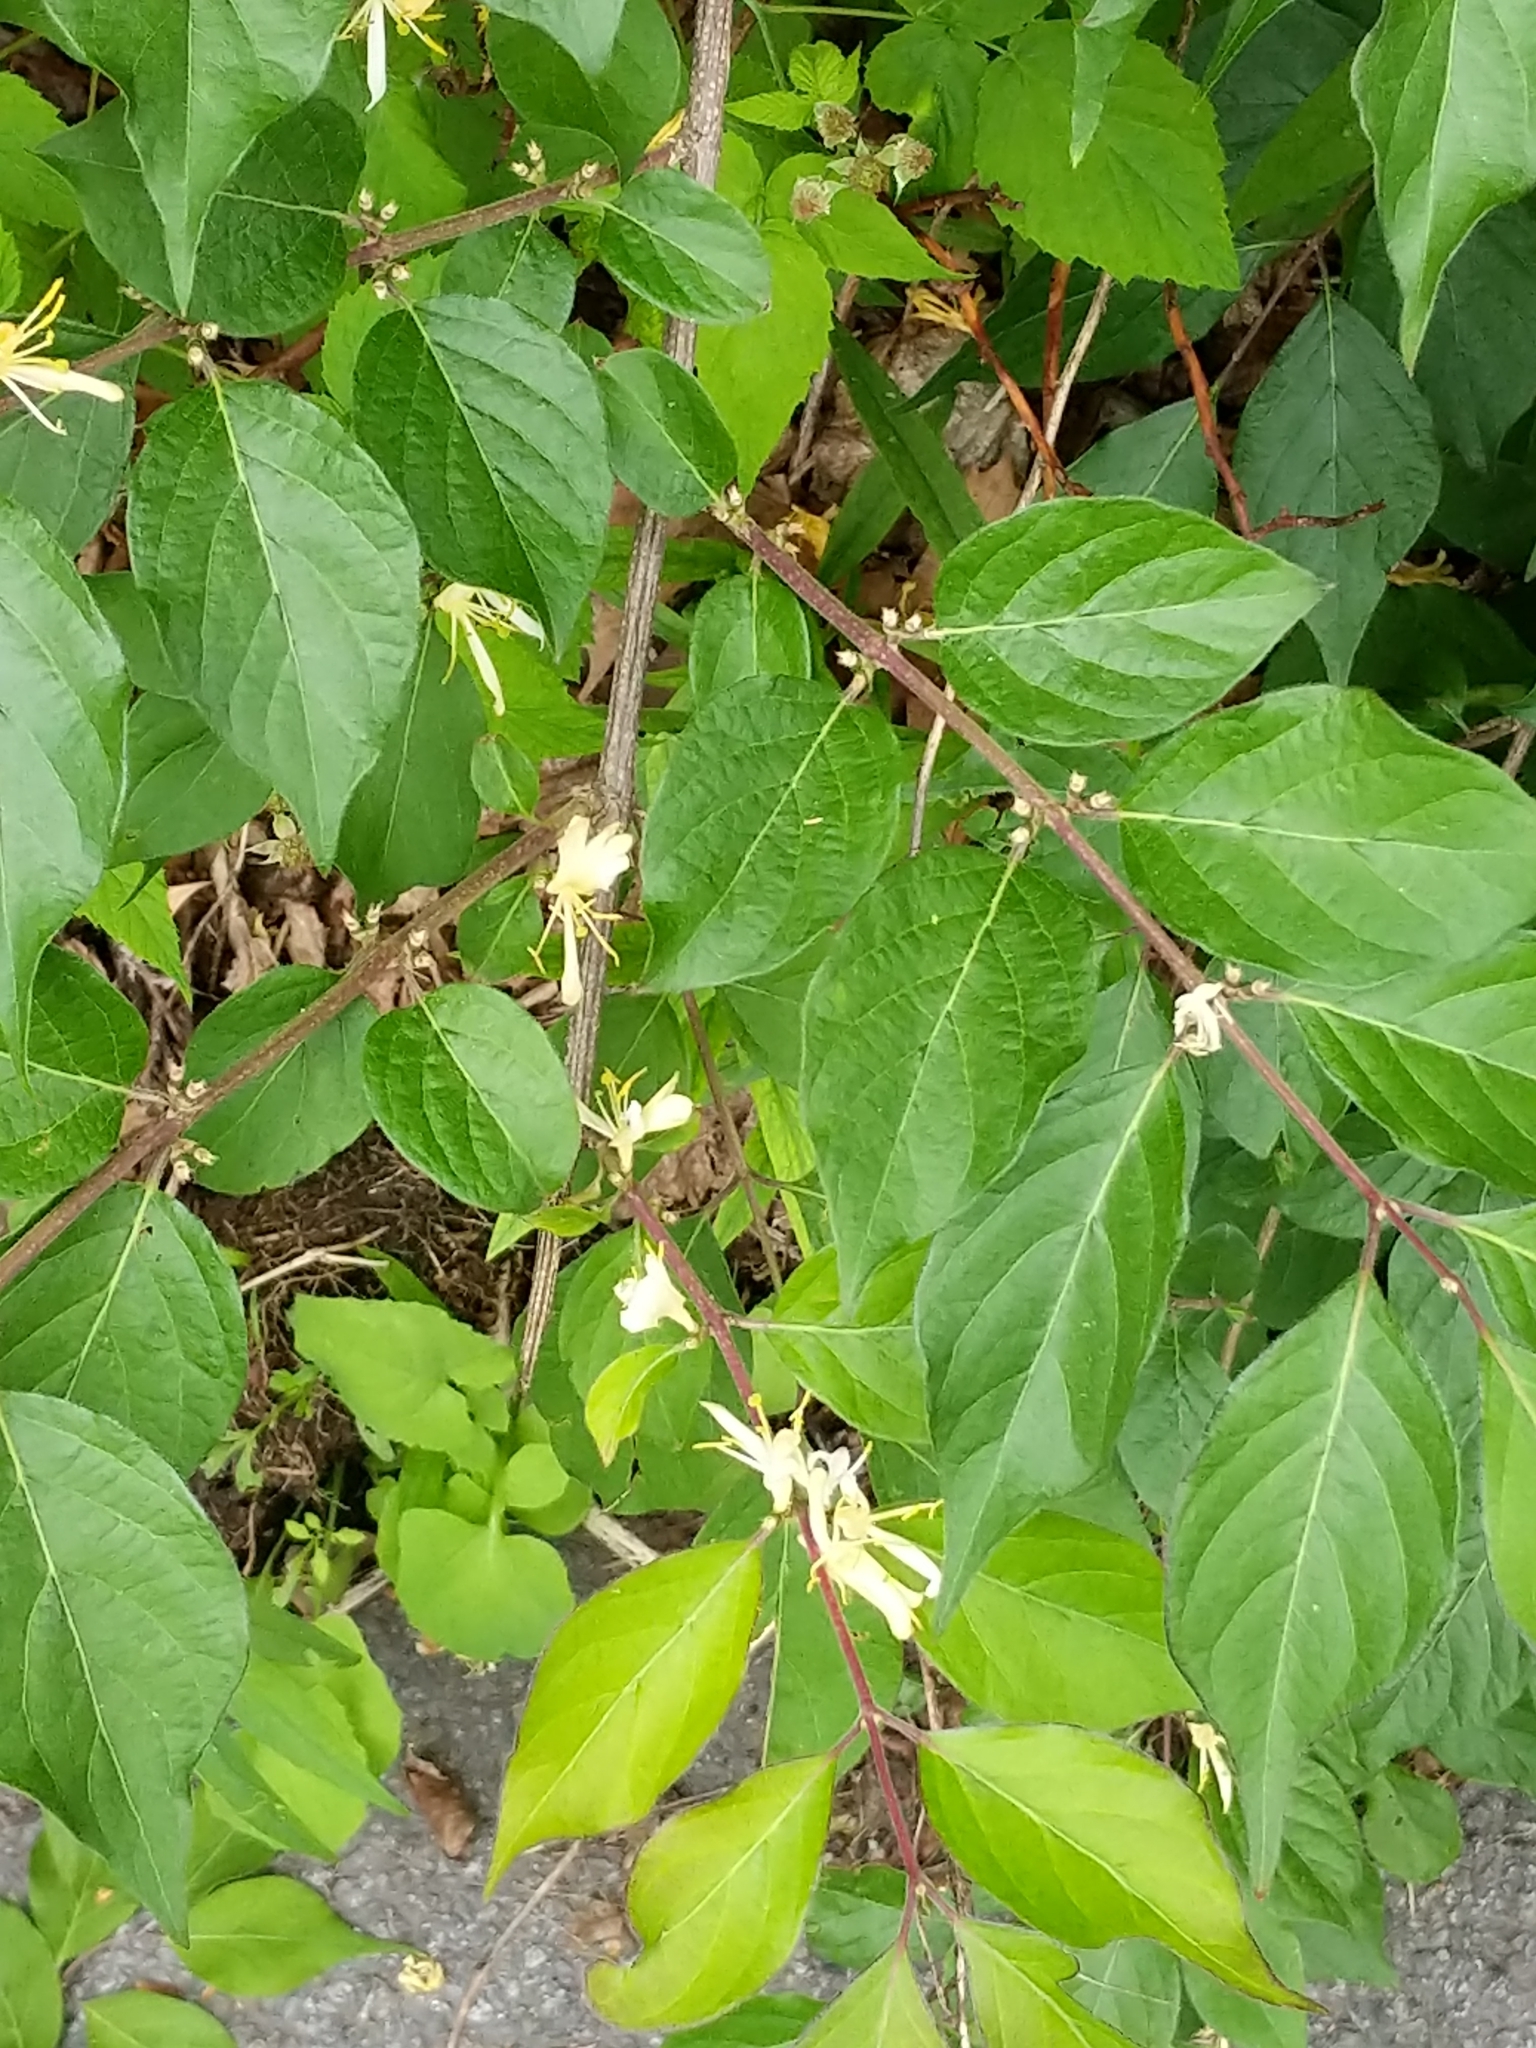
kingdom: Plantae
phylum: Tracheophyta
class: Magnoliopsida
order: Dipsacales
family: Caprifoliaceae
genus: Lonicera
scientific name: Lonicera maackii
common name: Amur honeysuckle
